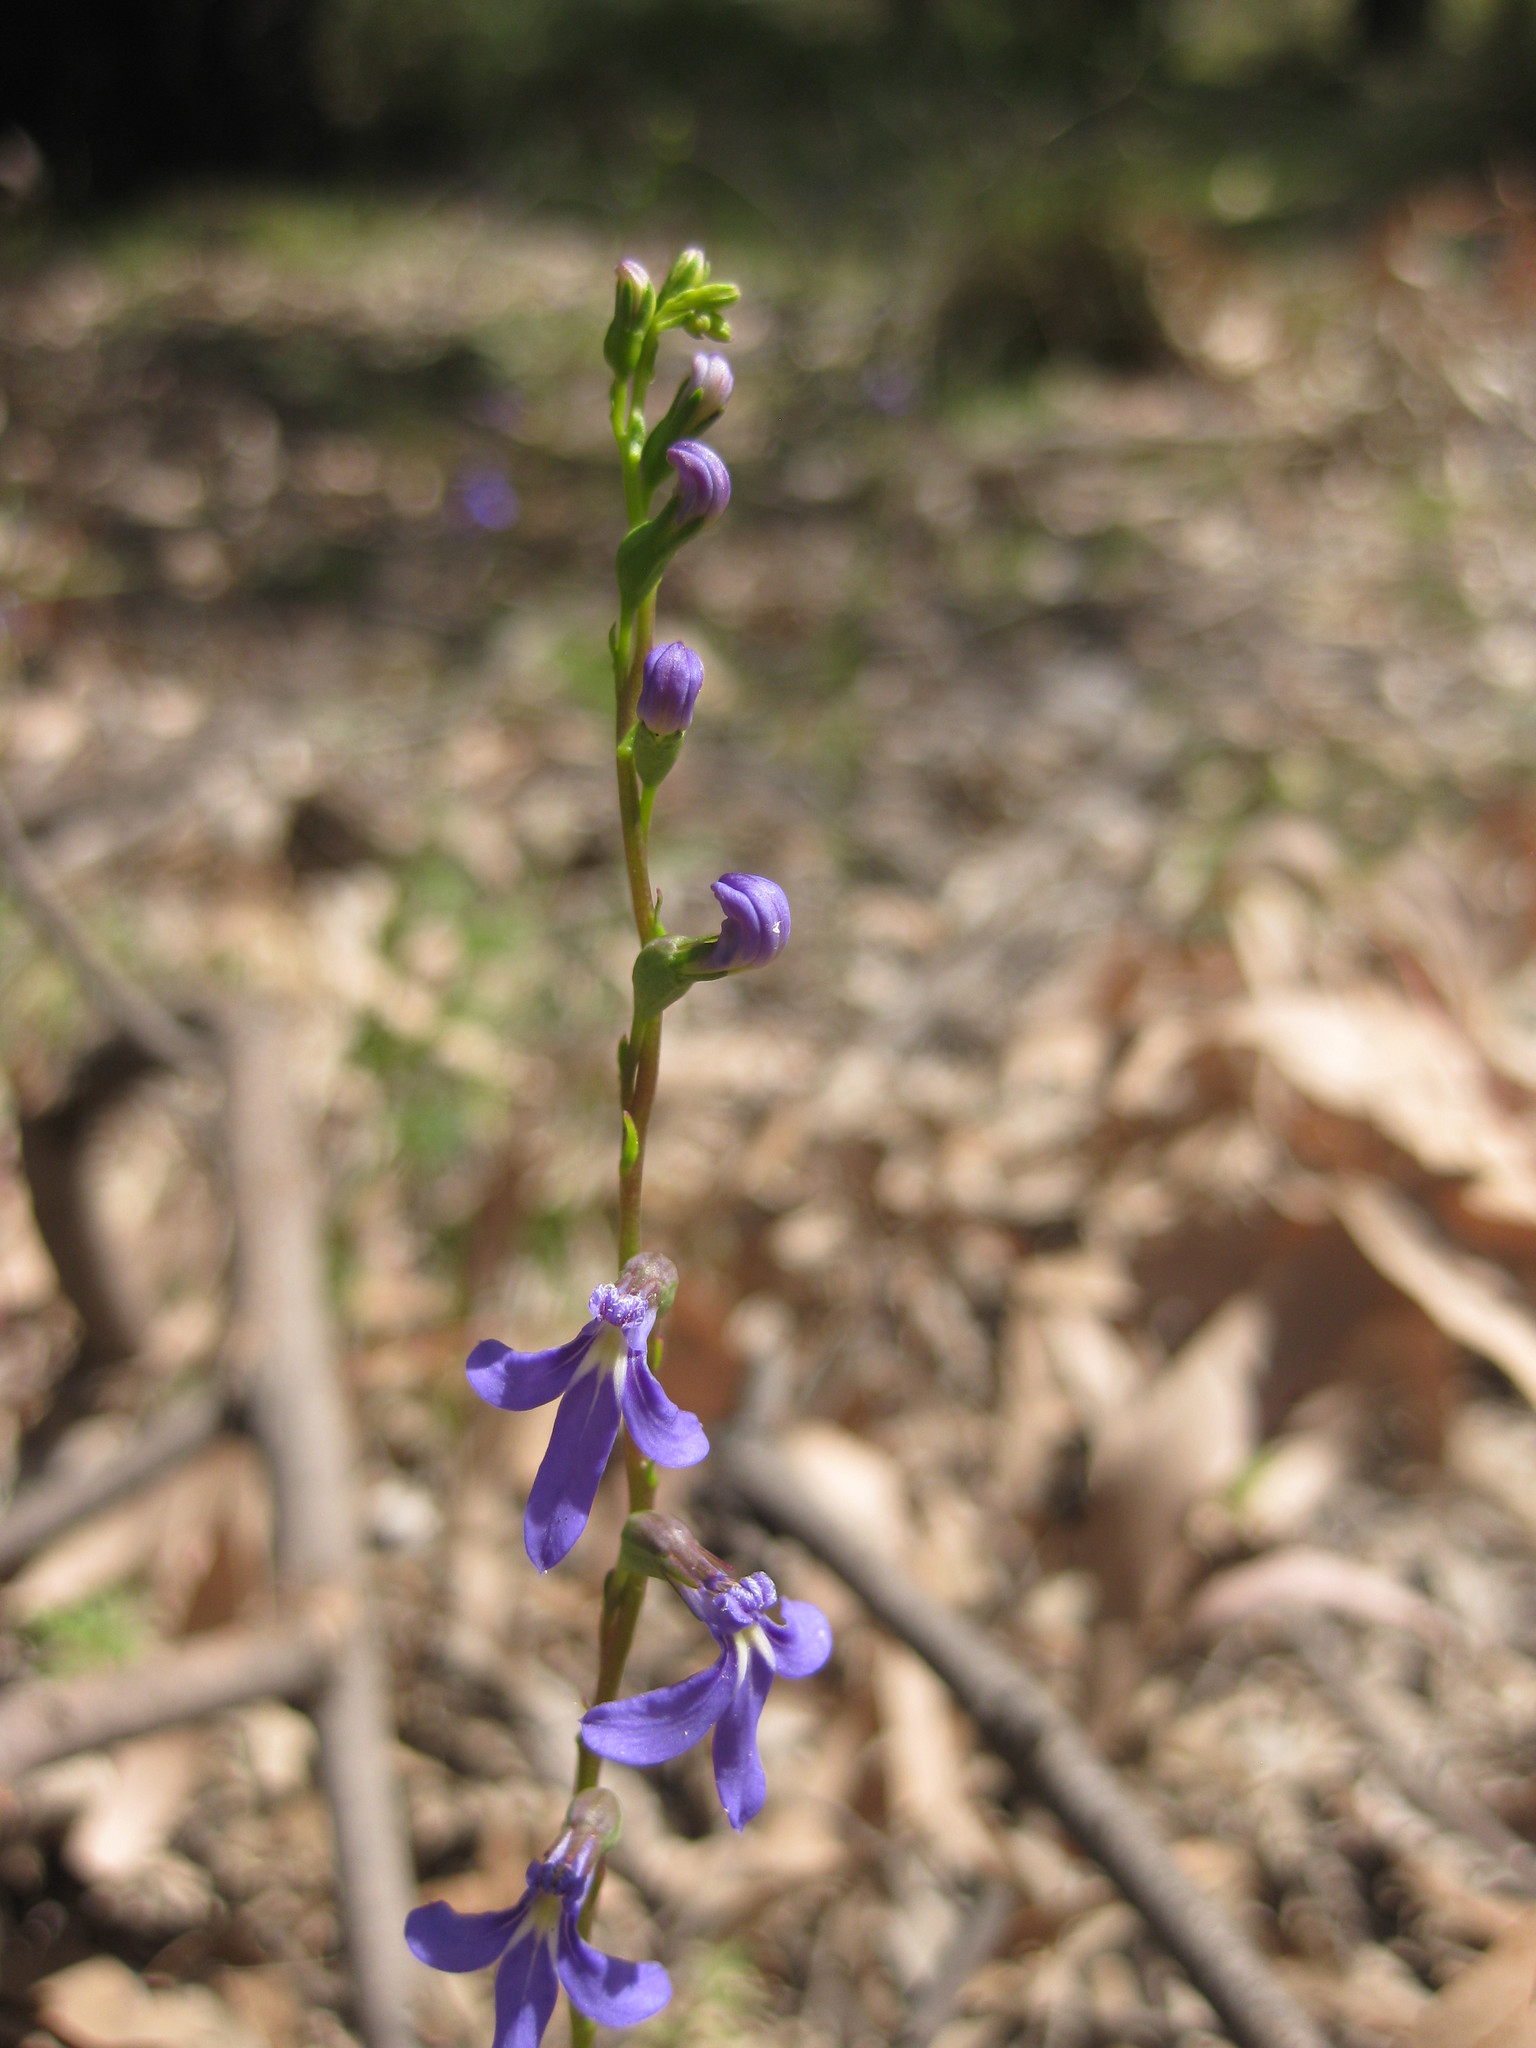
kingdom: Plantae
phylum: Tracheophyta
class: Magnoliopsida
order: Asterales
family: Campanulaceae
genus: Lobelia
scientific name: Lobelia gibbosa
